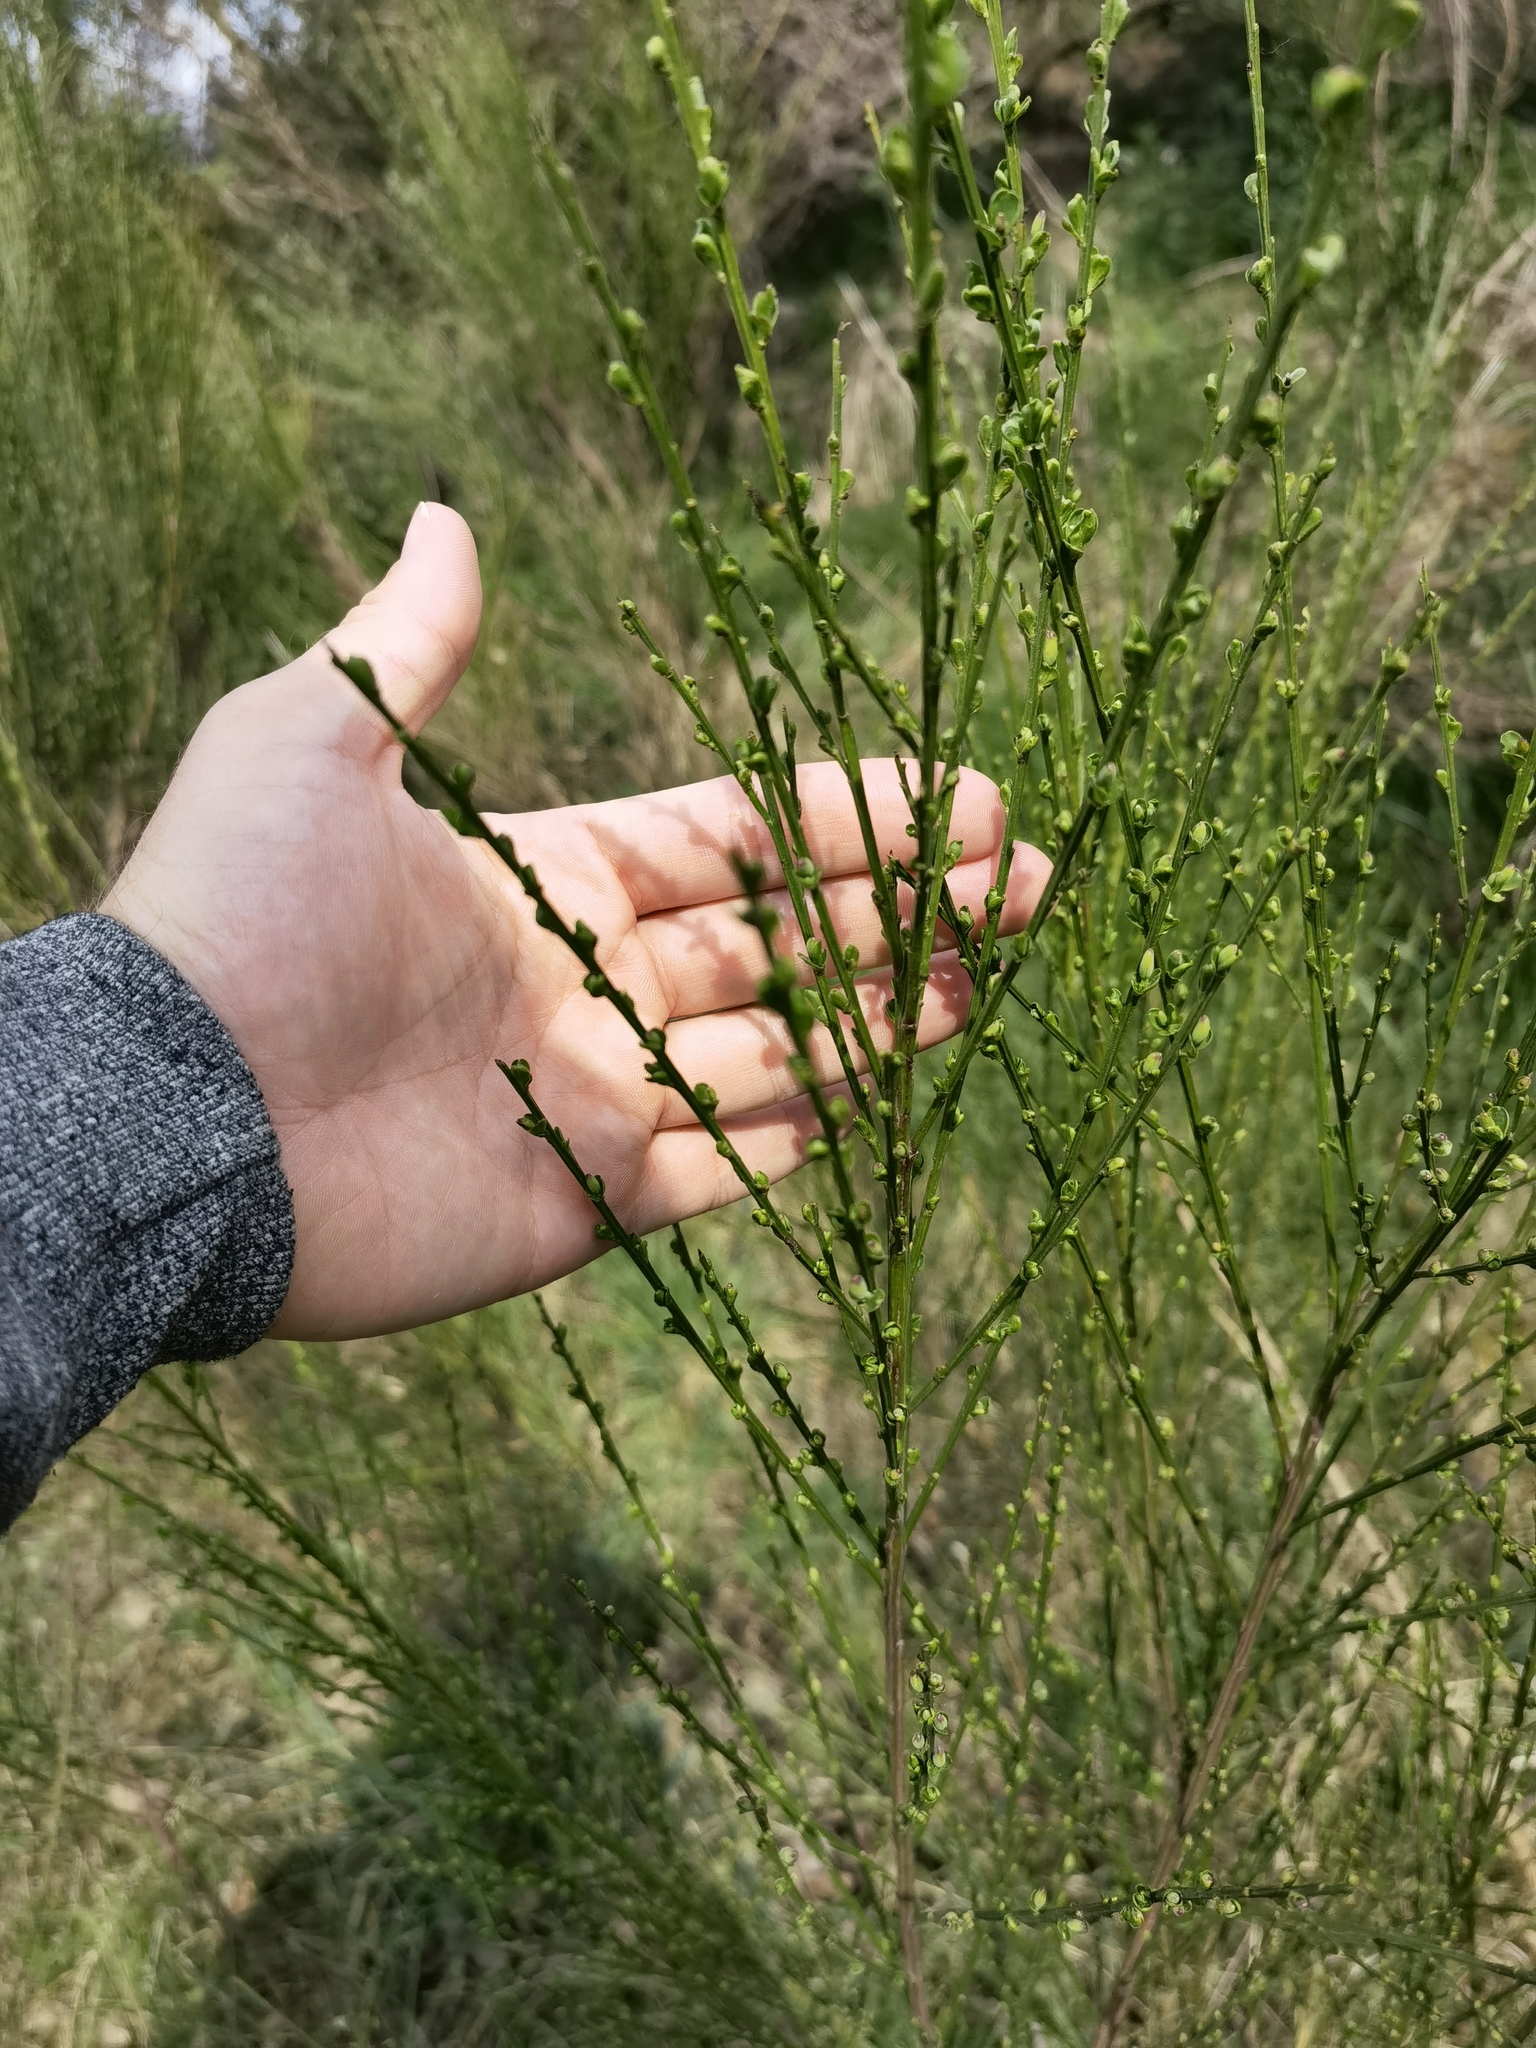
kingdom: Plantae
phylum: Tracheophyta
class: Magnoliopsida
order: Fabales
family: Fabaceae
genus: Cytisus
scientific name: Cytisus scoparius
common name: Scotch broom
